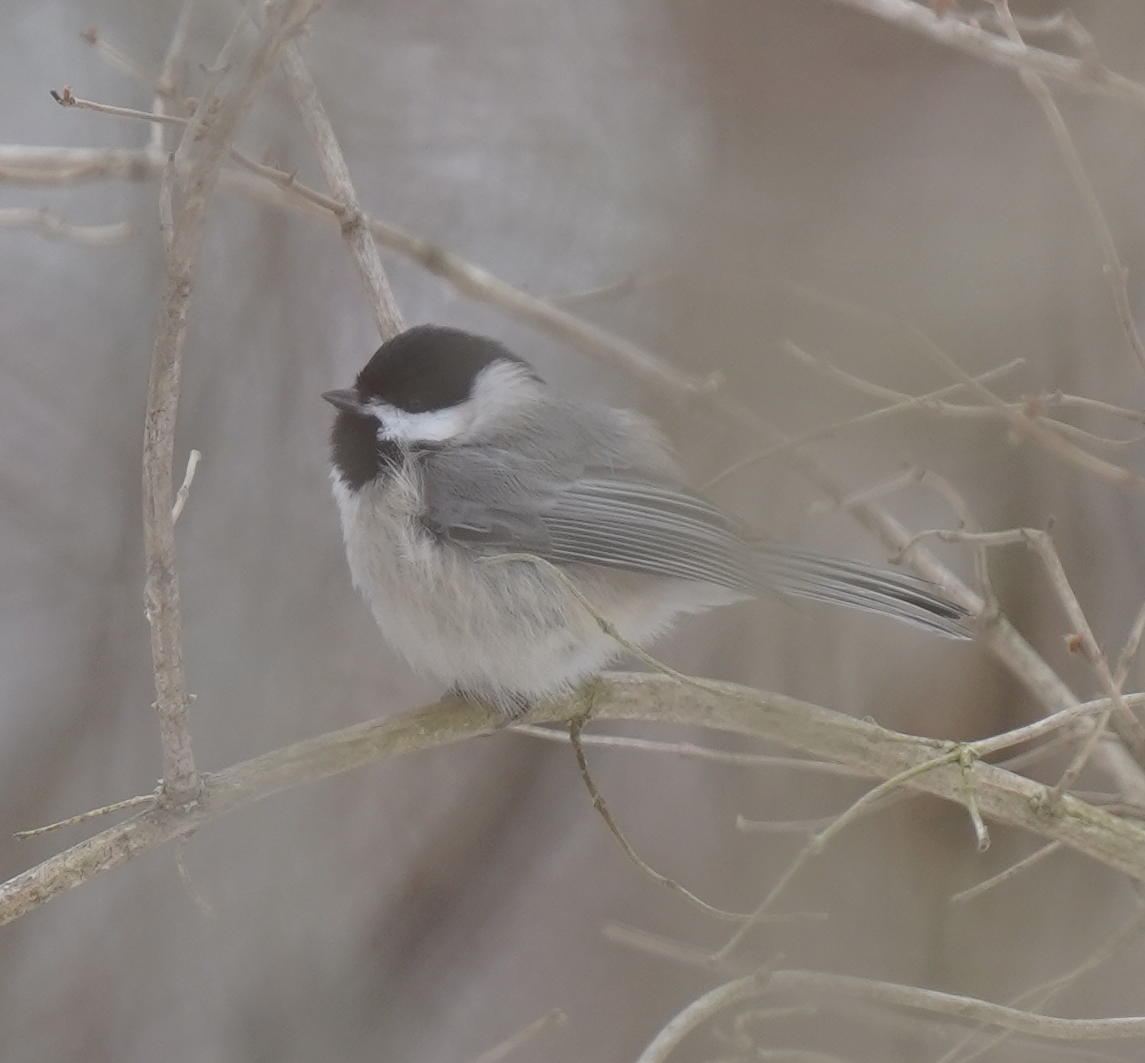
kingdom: Animalia
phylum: Chordata
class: Aves
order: Passeriformes
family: Paridae
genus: Poecile
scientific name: Poecile carolinensis
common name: Carolina chickadee
